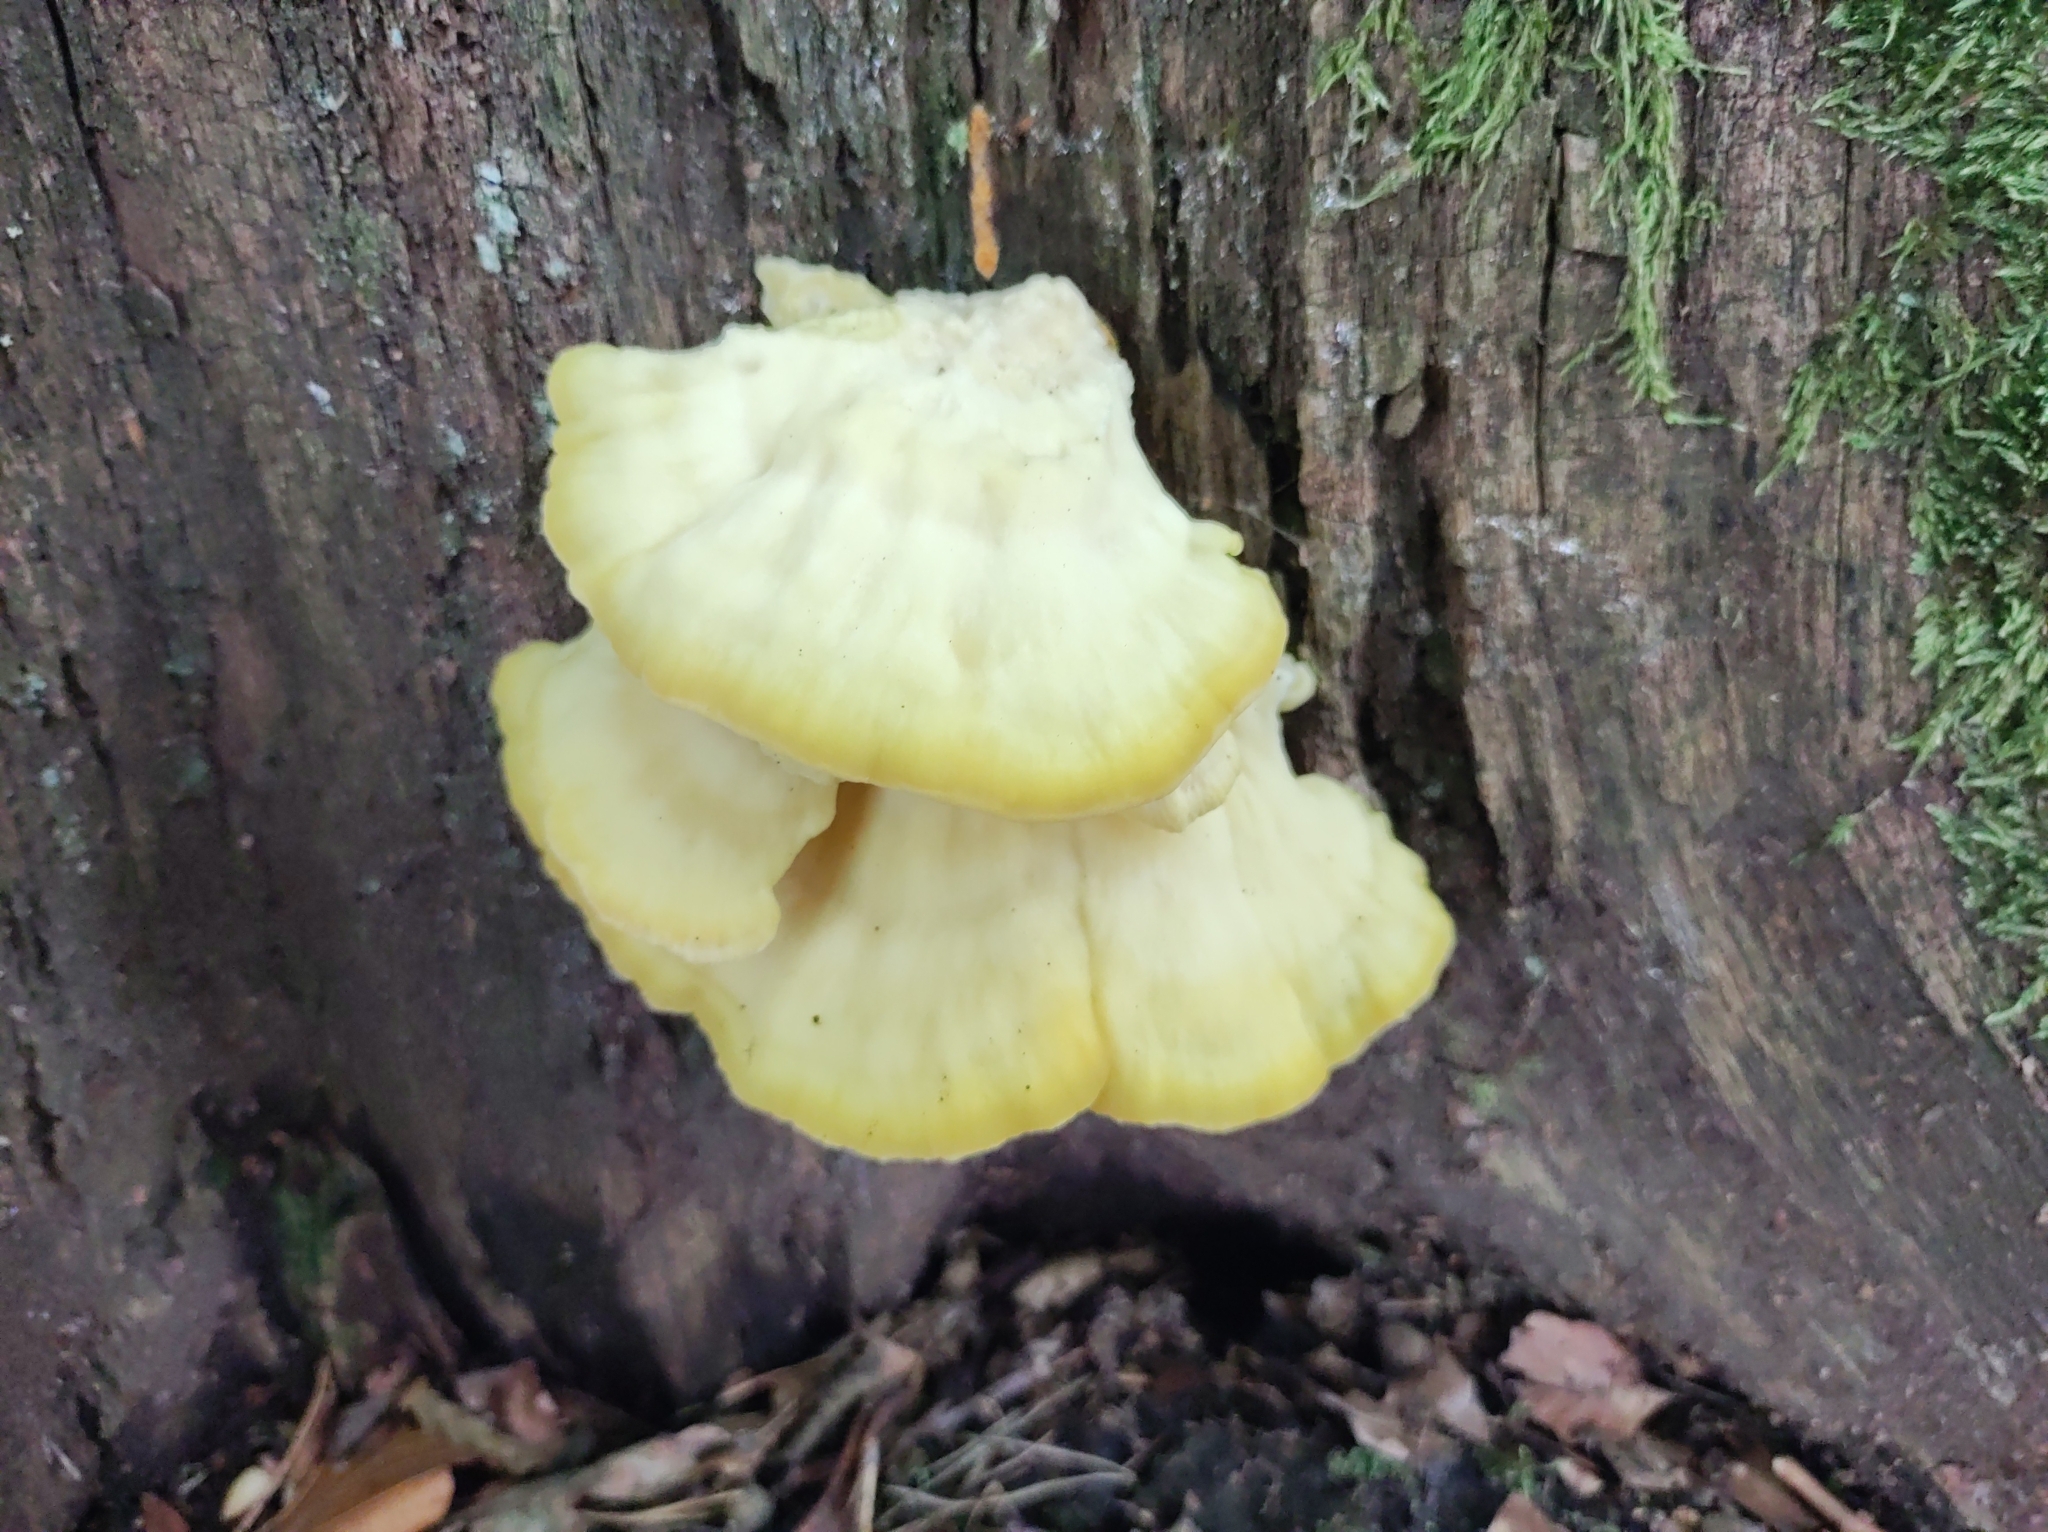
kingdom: Fungi
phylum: Basidiomycota
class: Agaricomycetes
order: Polyporales
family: Laetiporaceae
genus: Laetiporus
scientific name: Laetiporus sulphureus
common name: Chicken of the woods
